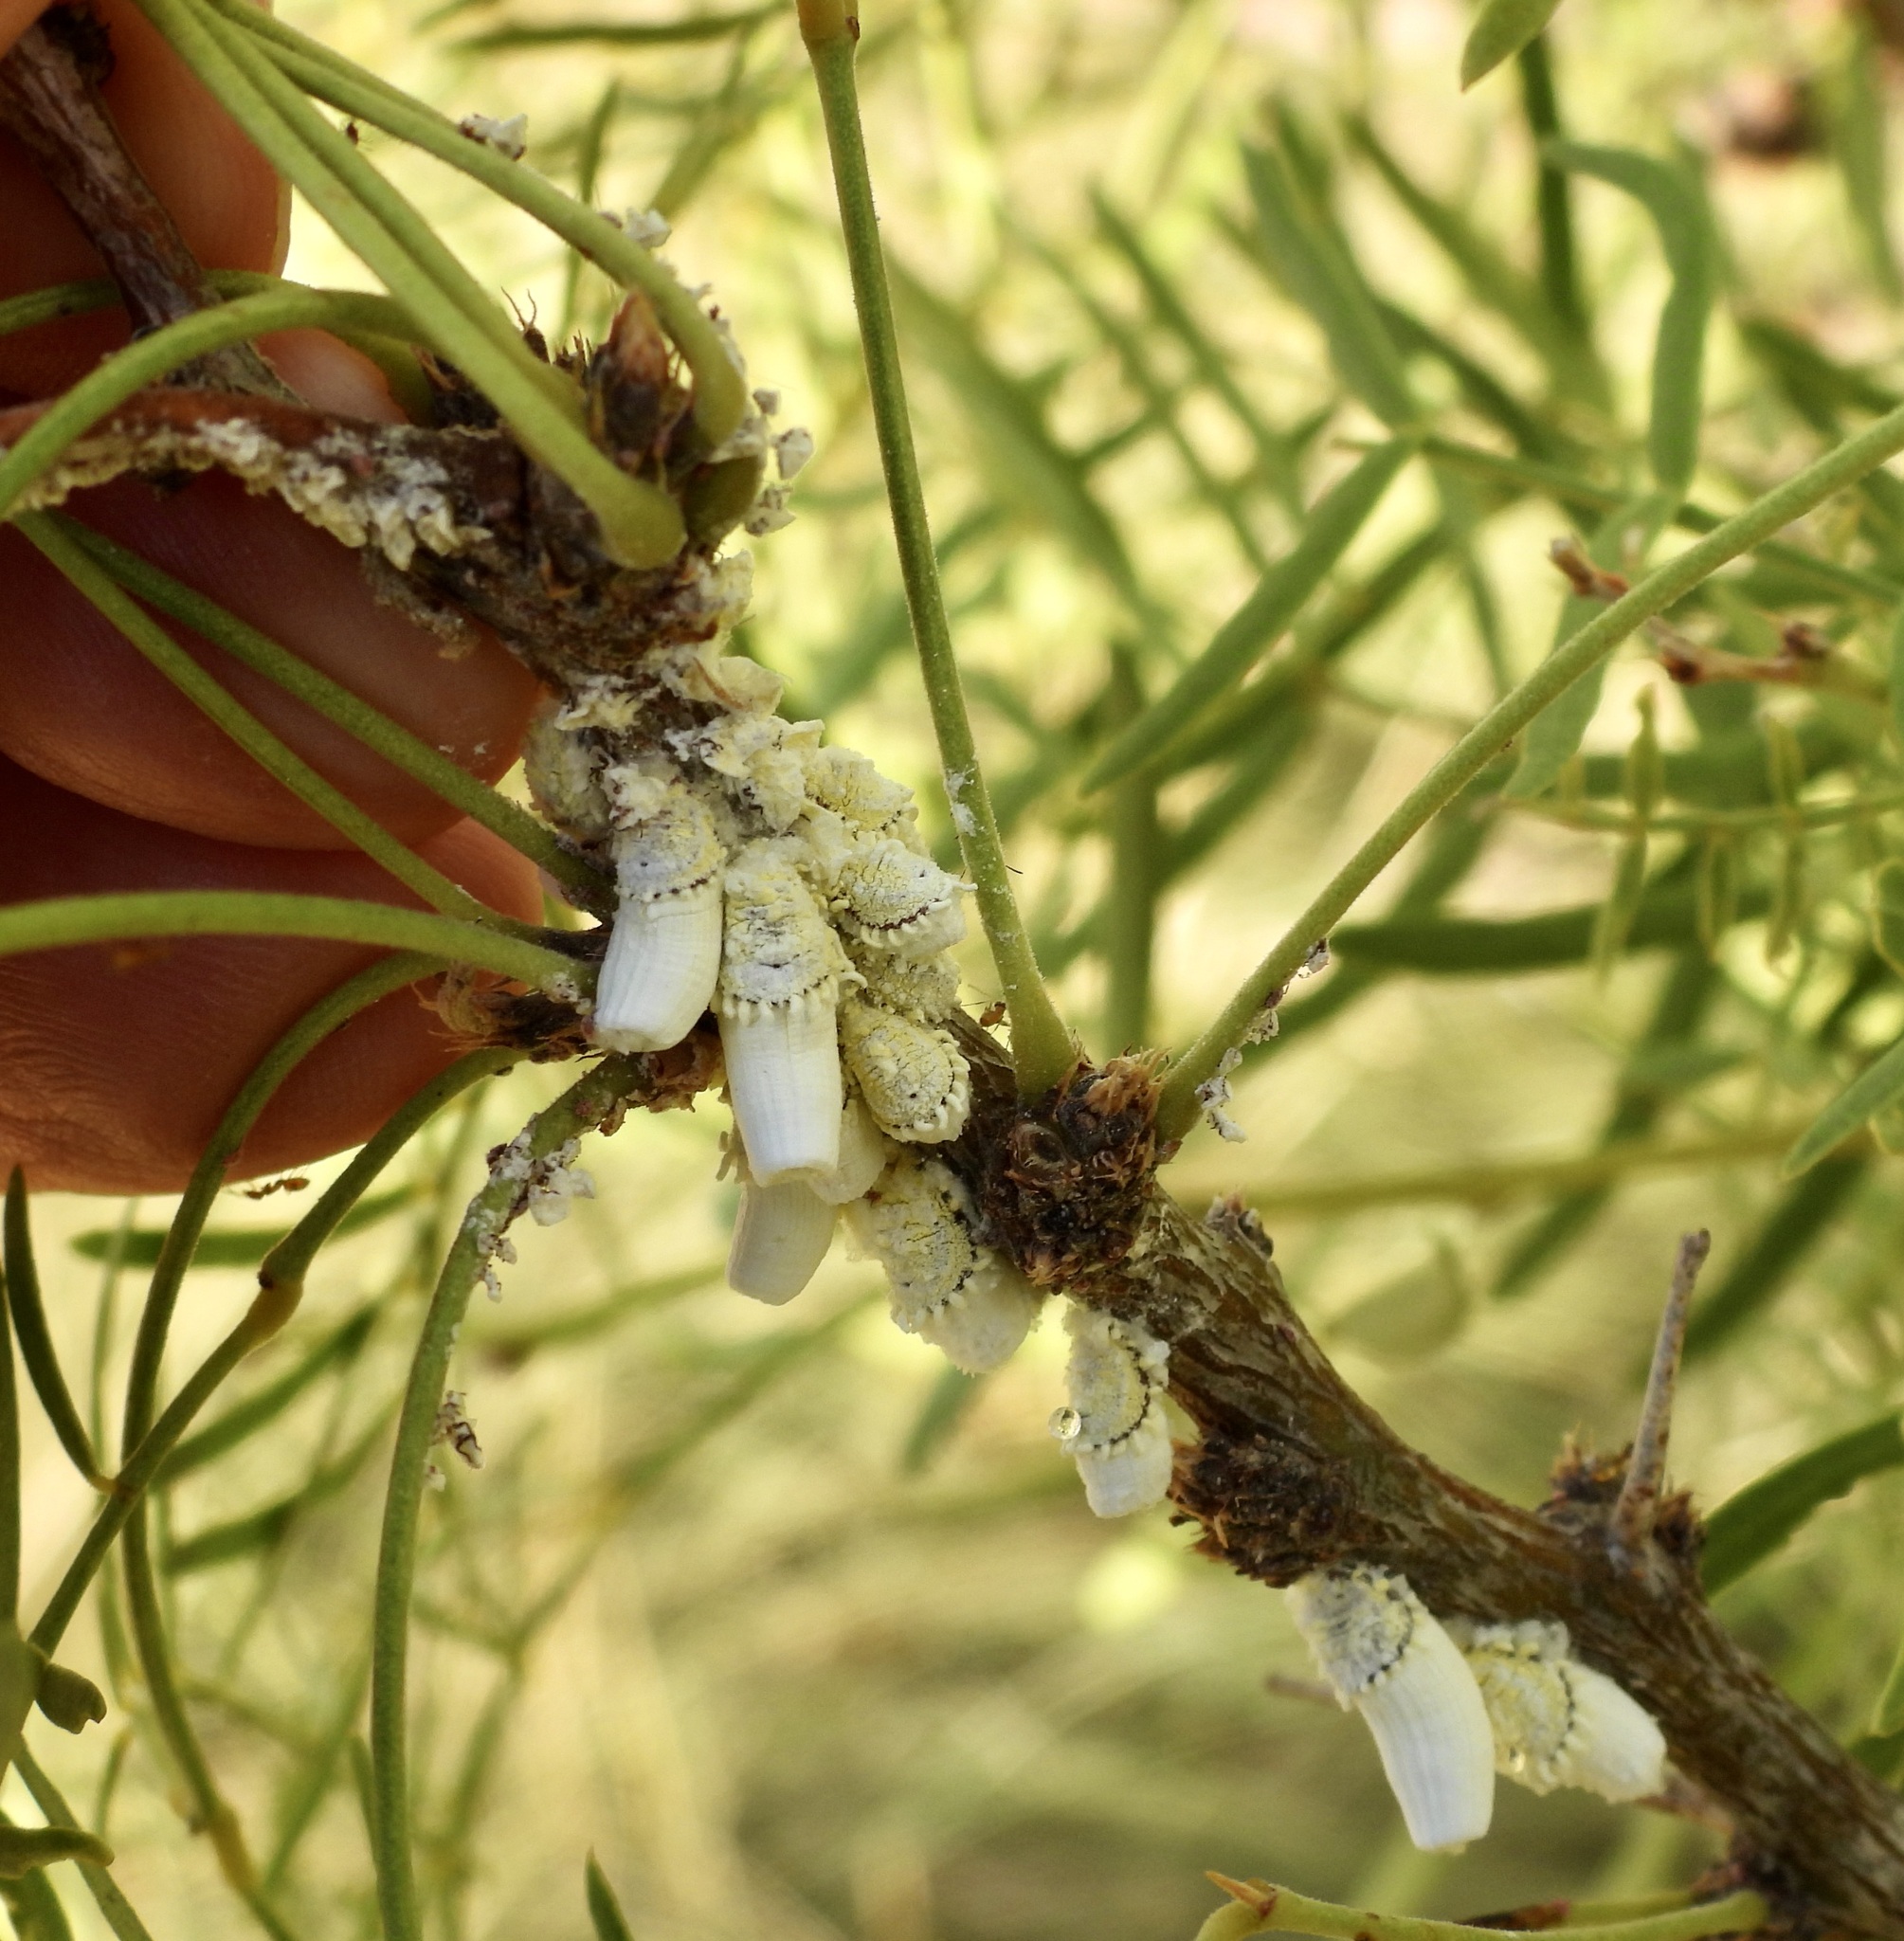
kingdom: Animalia
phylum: Arthropoda
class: Insecta
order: Hemiptera
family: Margarodidae
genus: Crypticerya
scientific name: Crypticerya rileyi
